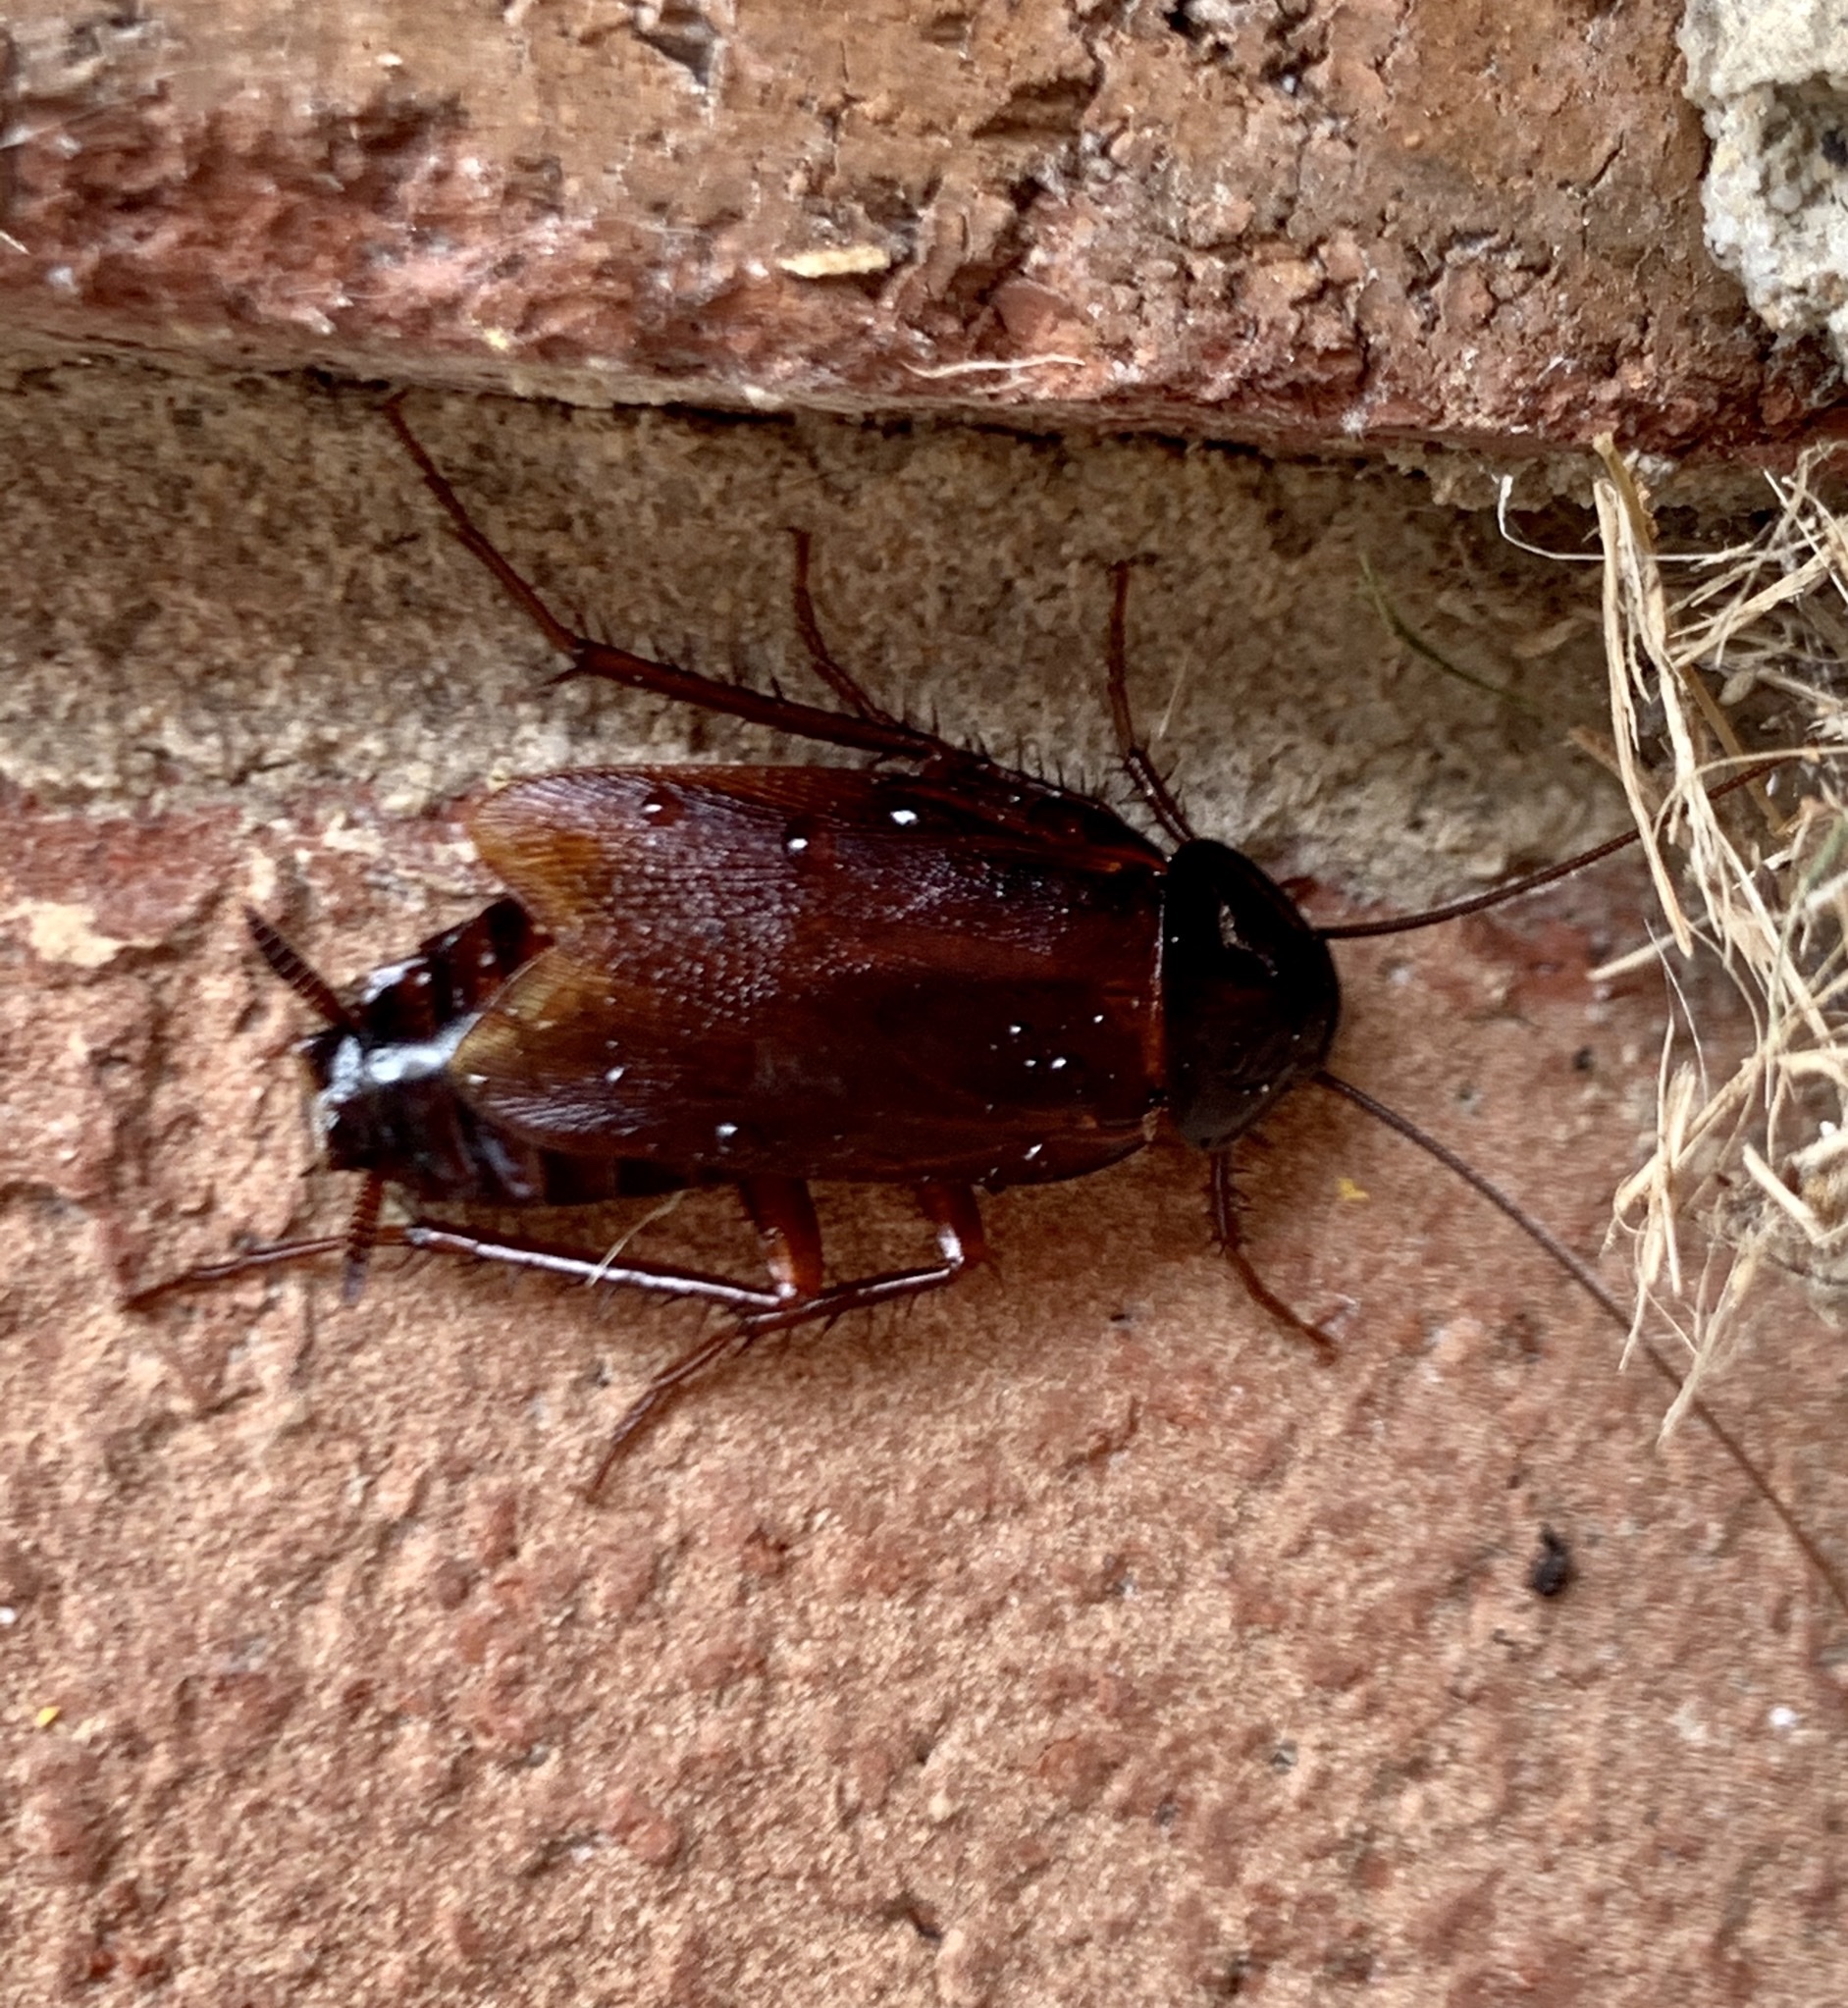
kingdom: Animalia
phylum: Arthropoda
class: Insecta
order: Blattodea
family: Blattidae
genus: Blatta
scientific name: Blatta orientalis
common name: Oriental cockroach
